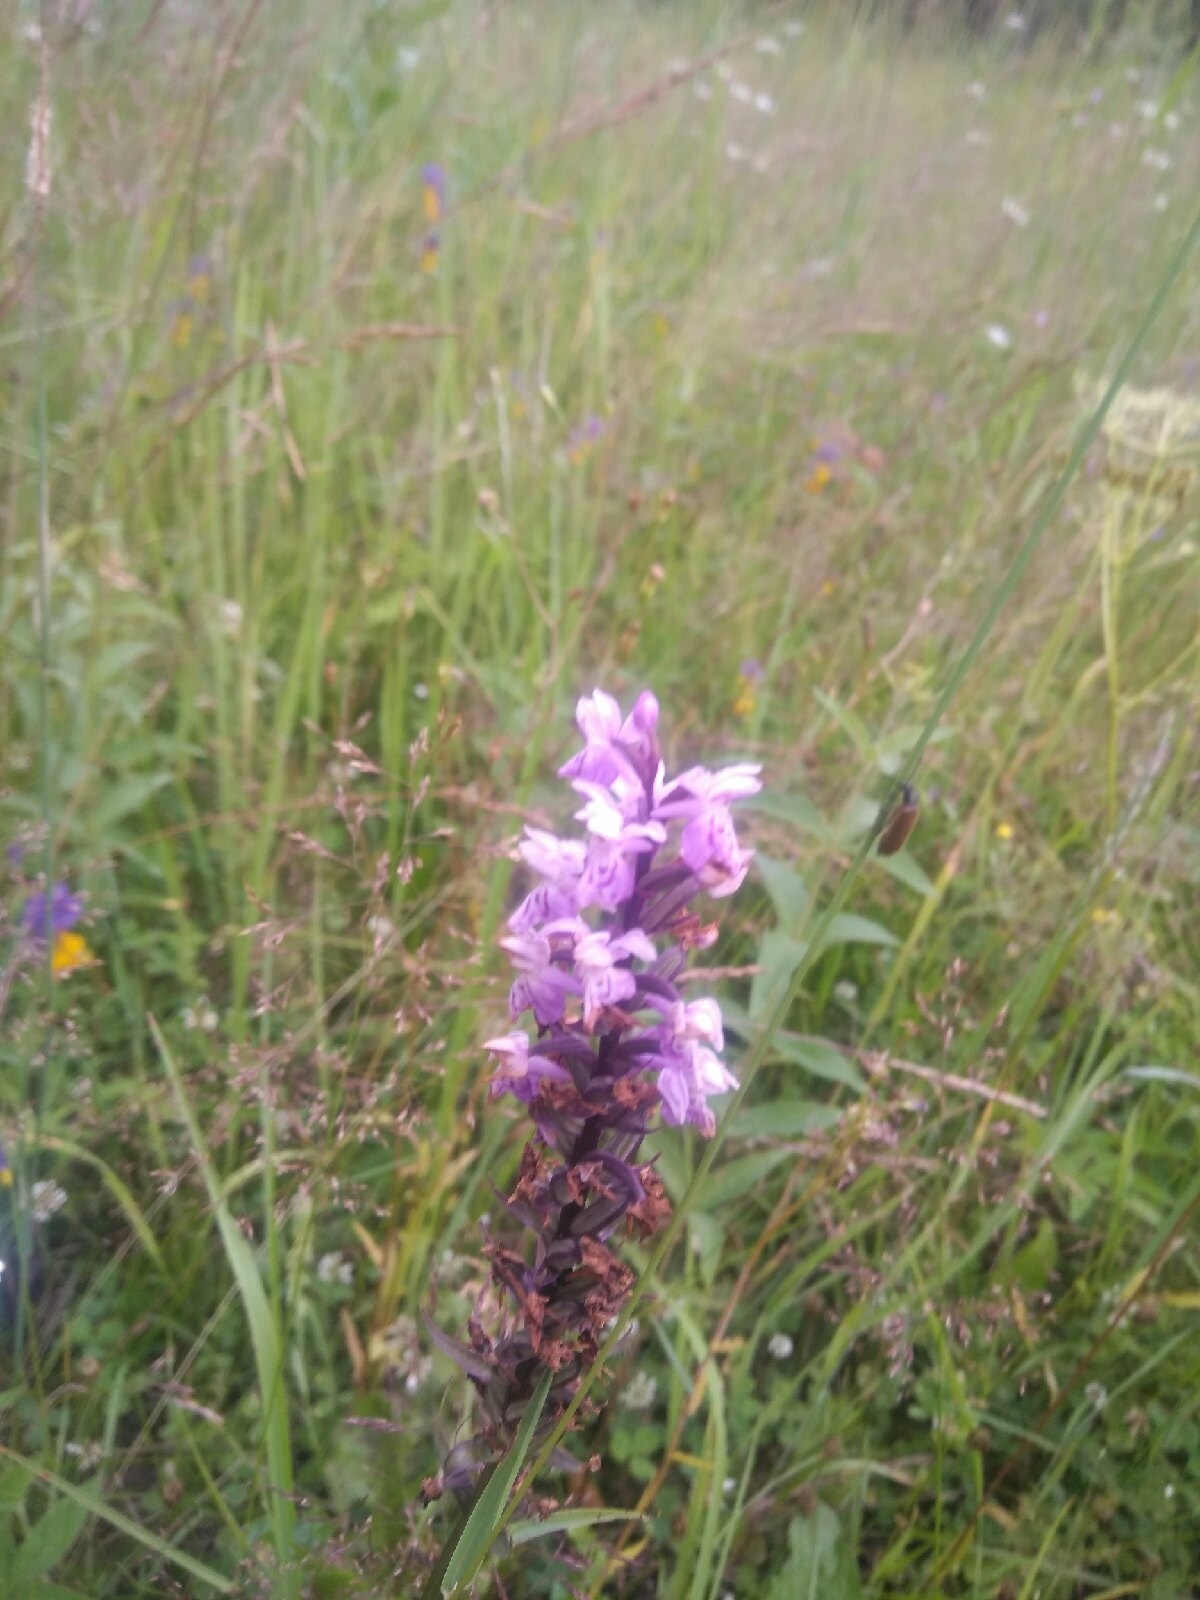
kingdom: Plantae
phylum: Tracheophyta
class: Liliopsida
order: Asparagales
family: Orchidaceae
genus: Dactylorhiza
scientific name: Dactylorhiza maculata
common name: Heath spotted-orchid
